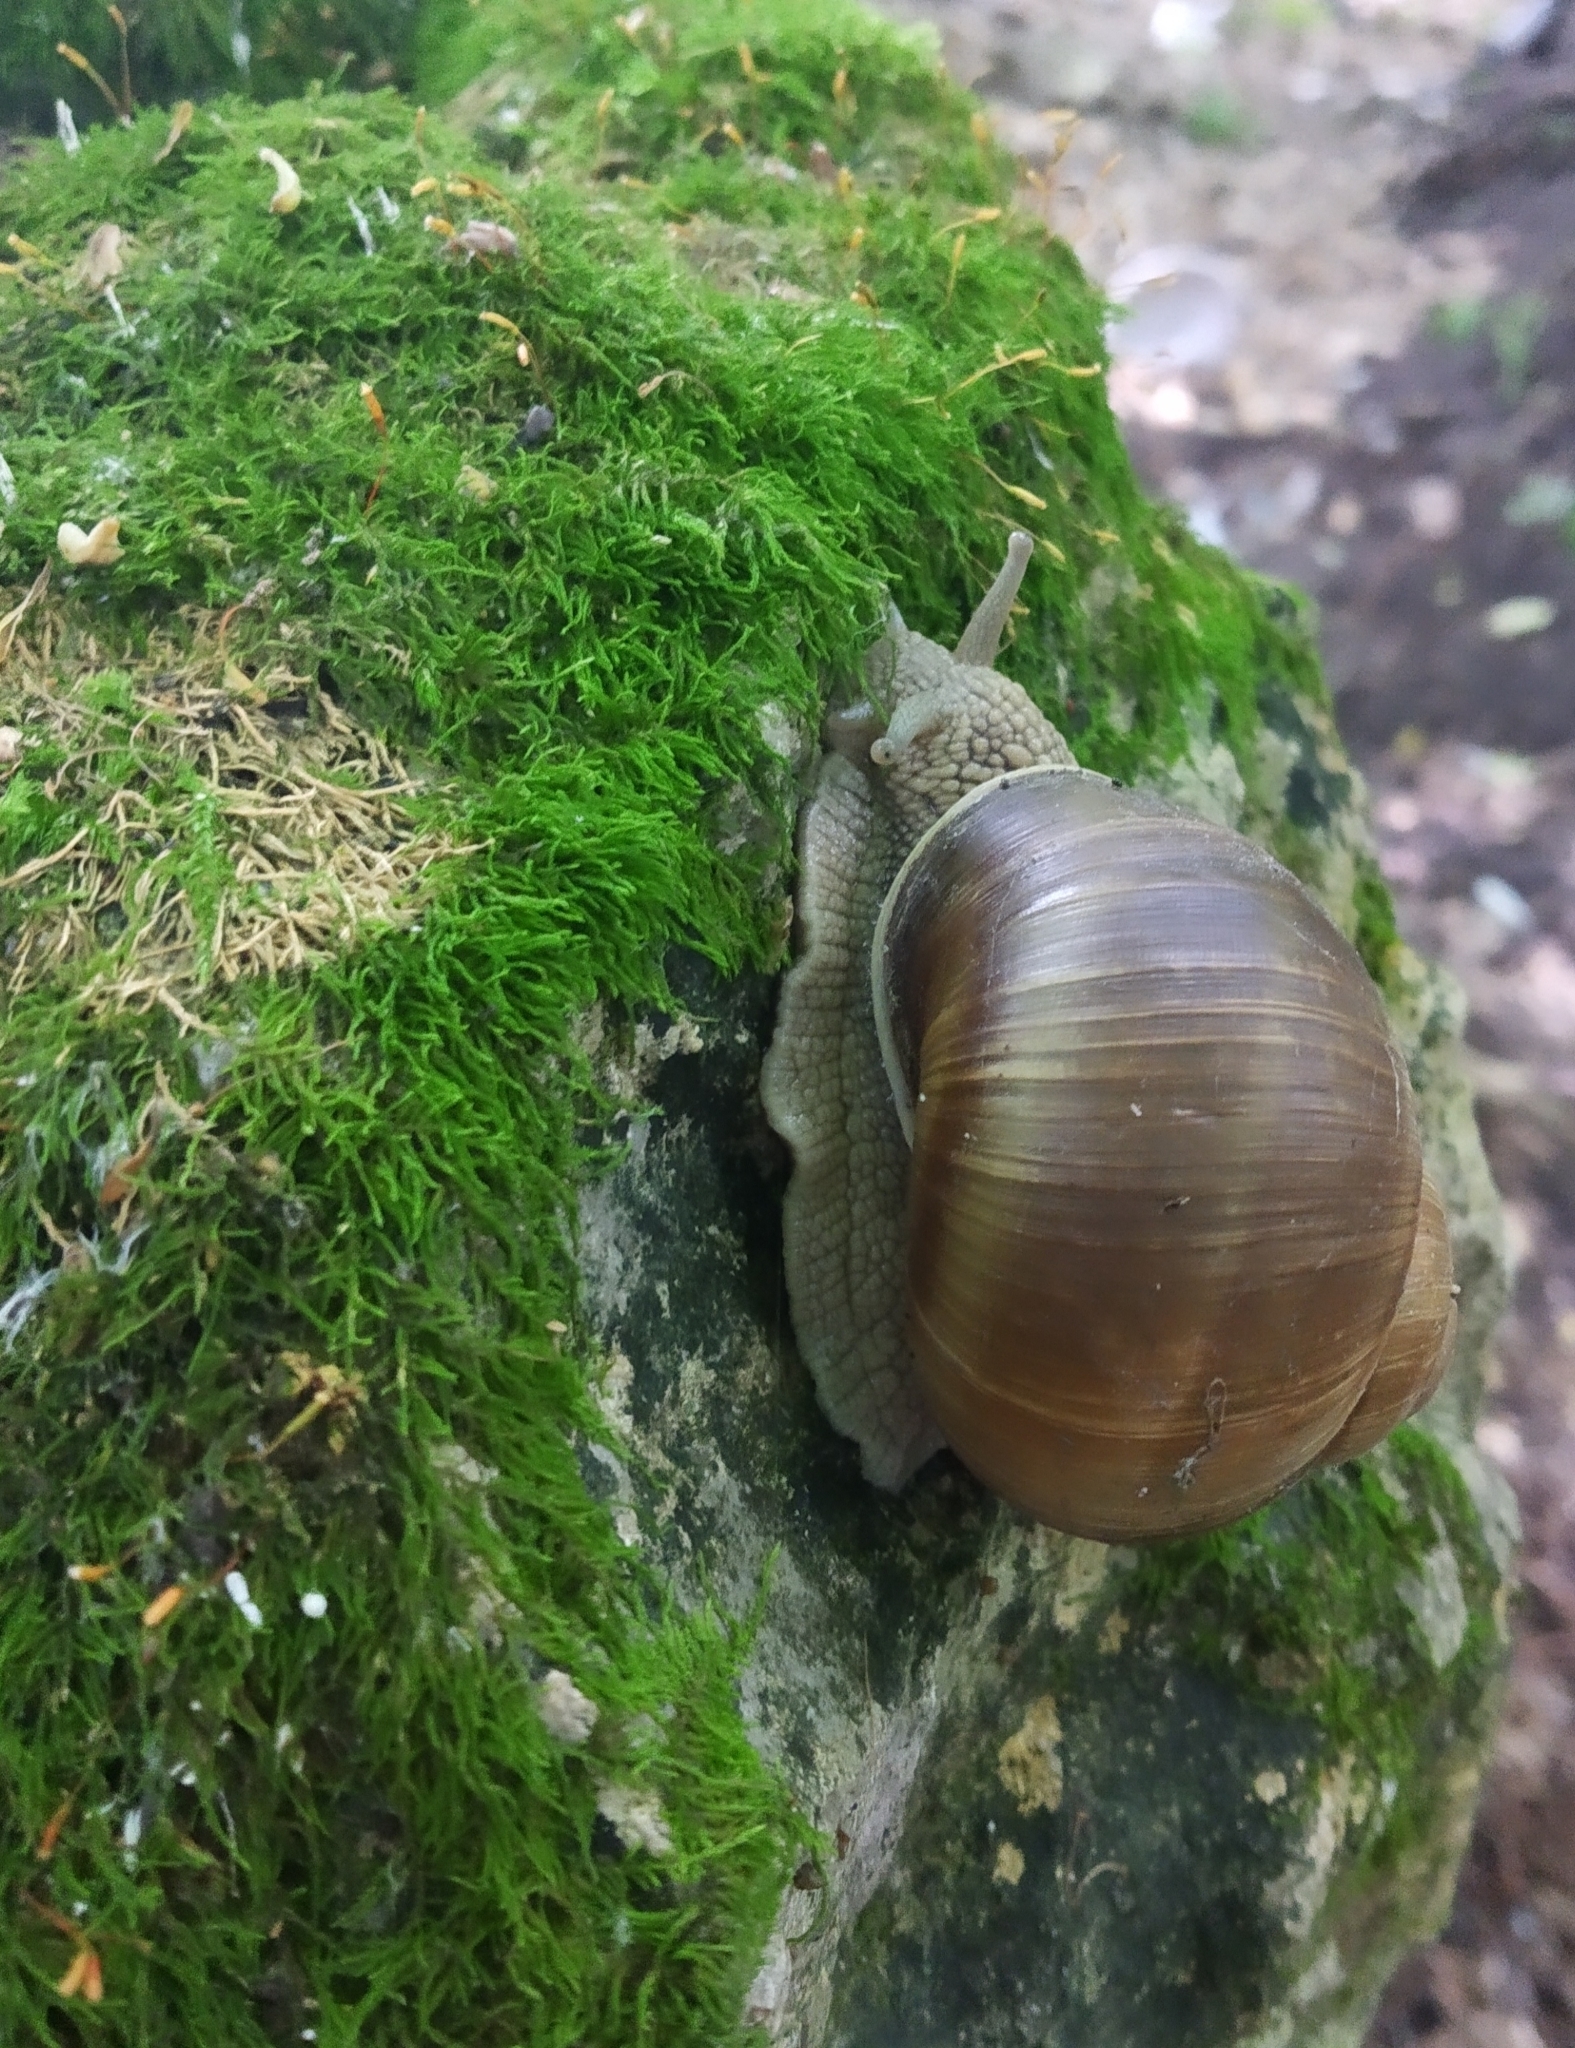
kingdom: Animalia
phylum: Mollusca
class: Gastropoda
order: Stylommatophora
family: Helicidae
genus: Helix
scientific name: Helix pomatia
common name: Roman snail
